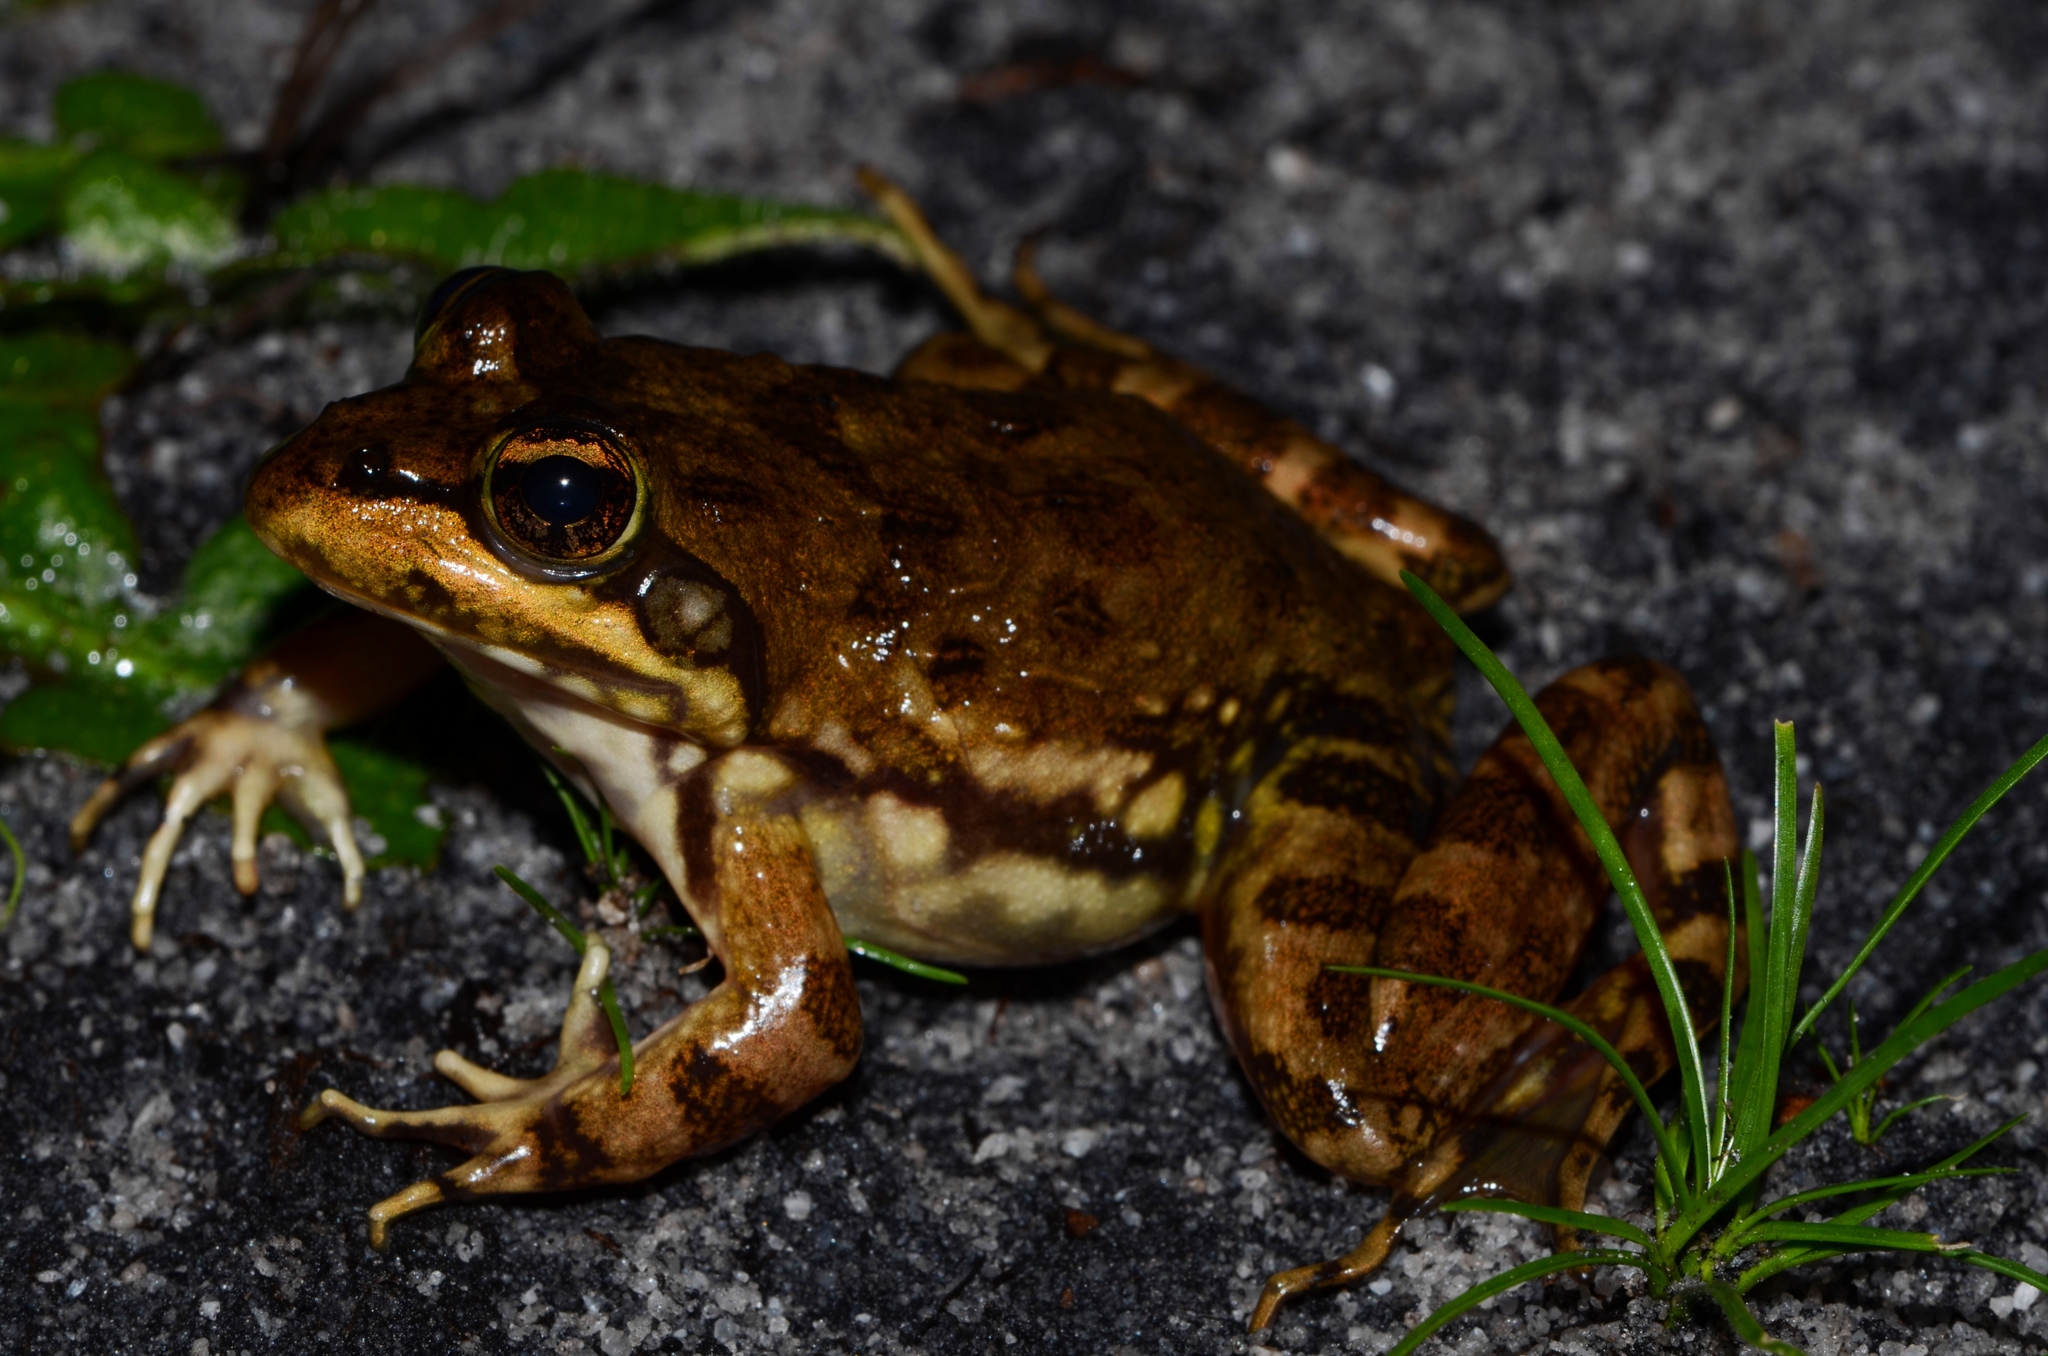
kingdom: Animalia
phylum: Chordata
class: Amphibia
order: Anura
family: Pyxicephalidae
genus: Amietia
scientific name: Amietia fuscigula
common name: Cape rana
